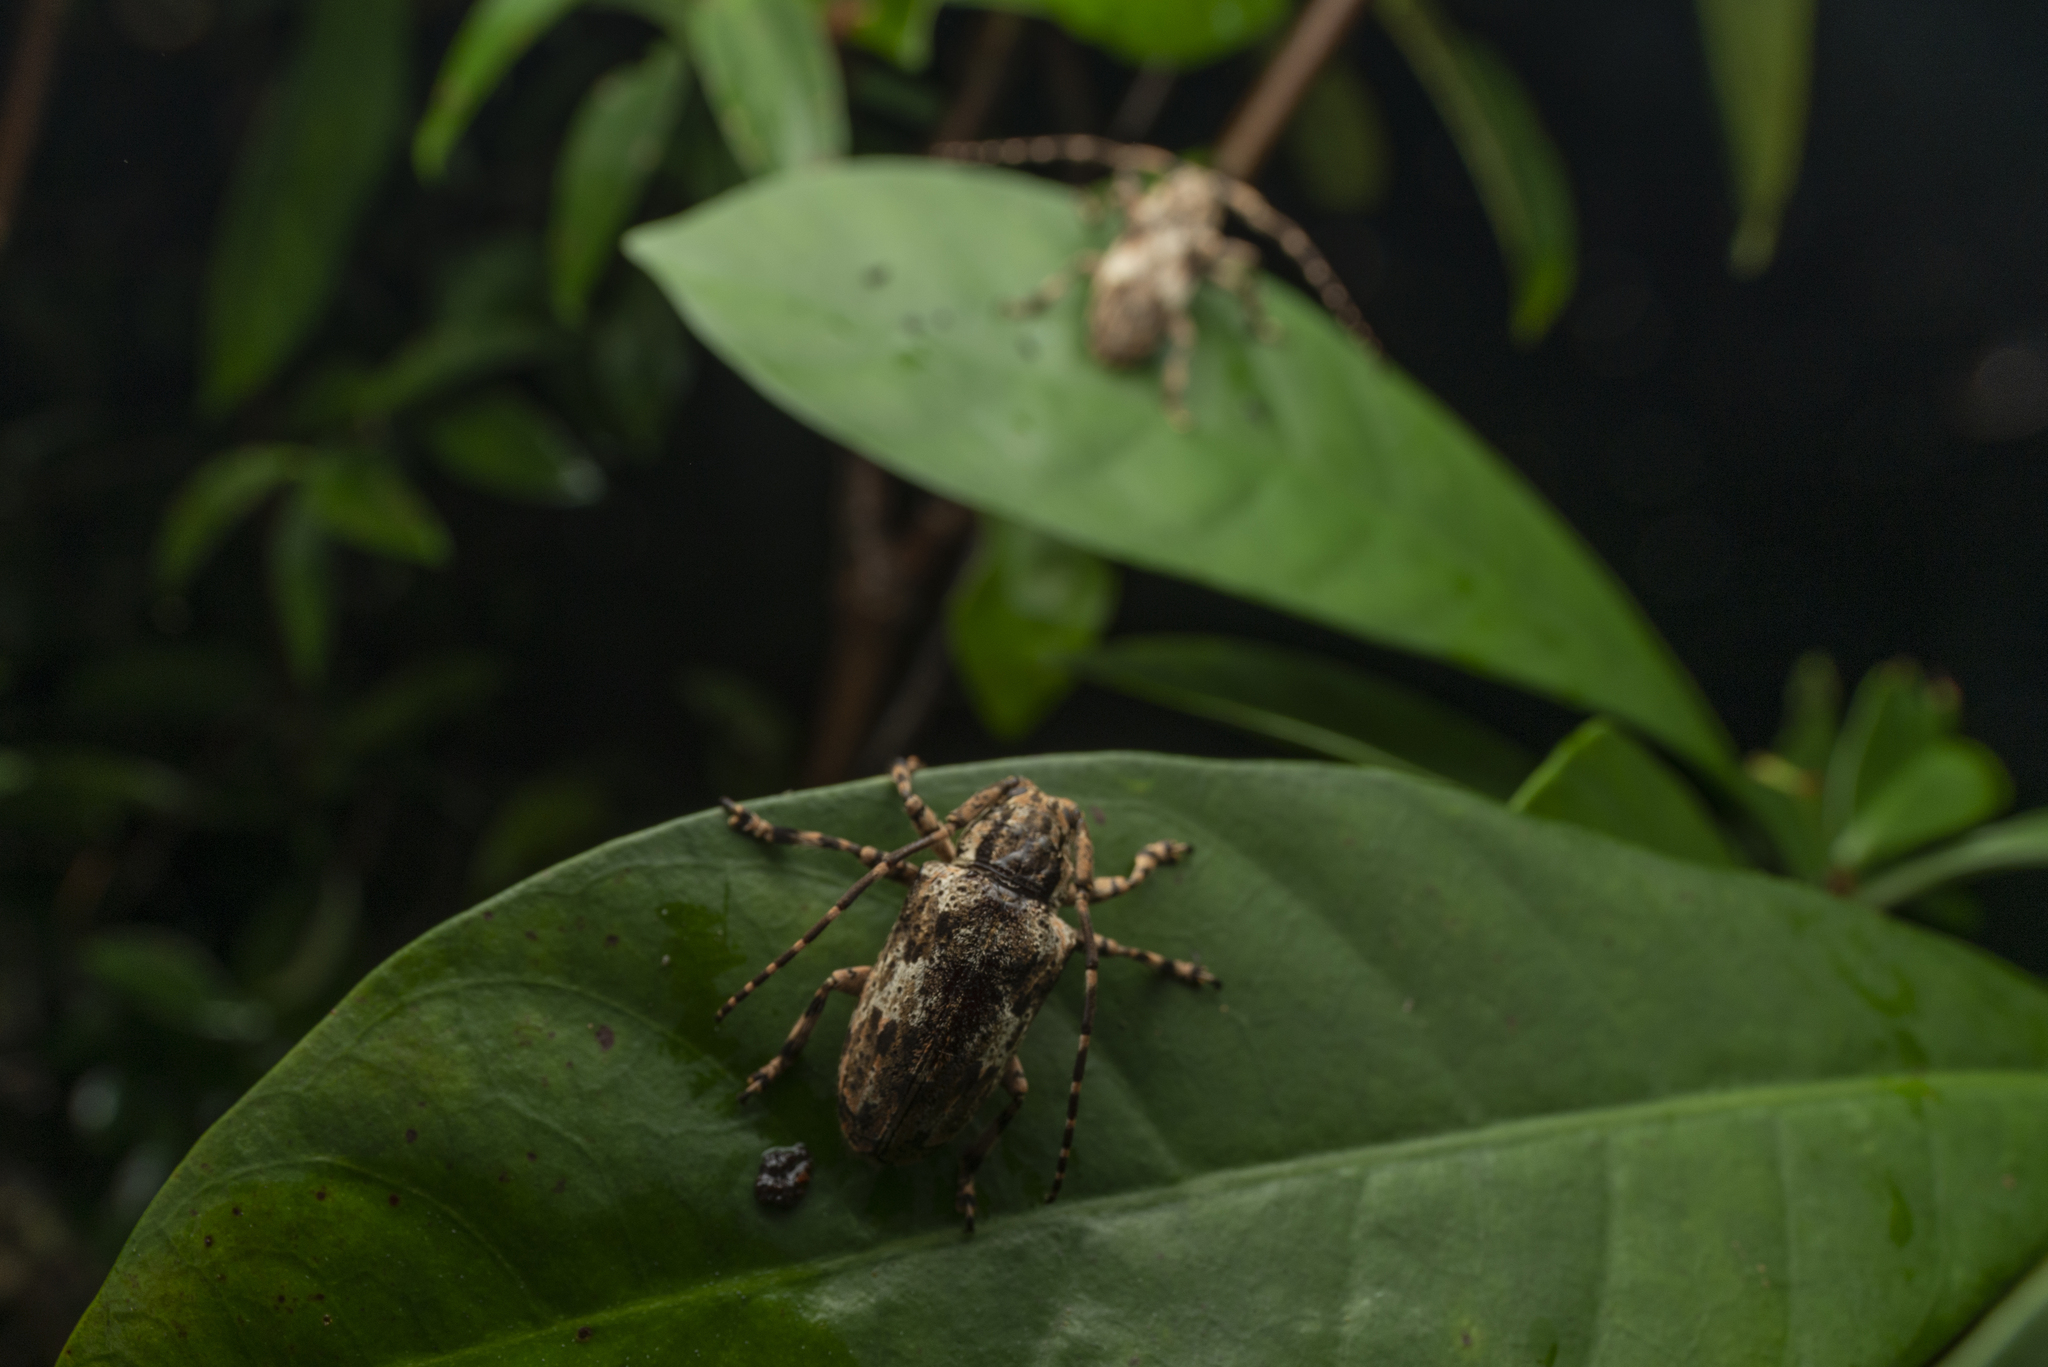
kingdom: Animalia
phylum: Arthropoda
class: Insecta
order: Coleoptera
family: Cerambycidae
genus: Coptops
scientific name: Coptops lichenea
